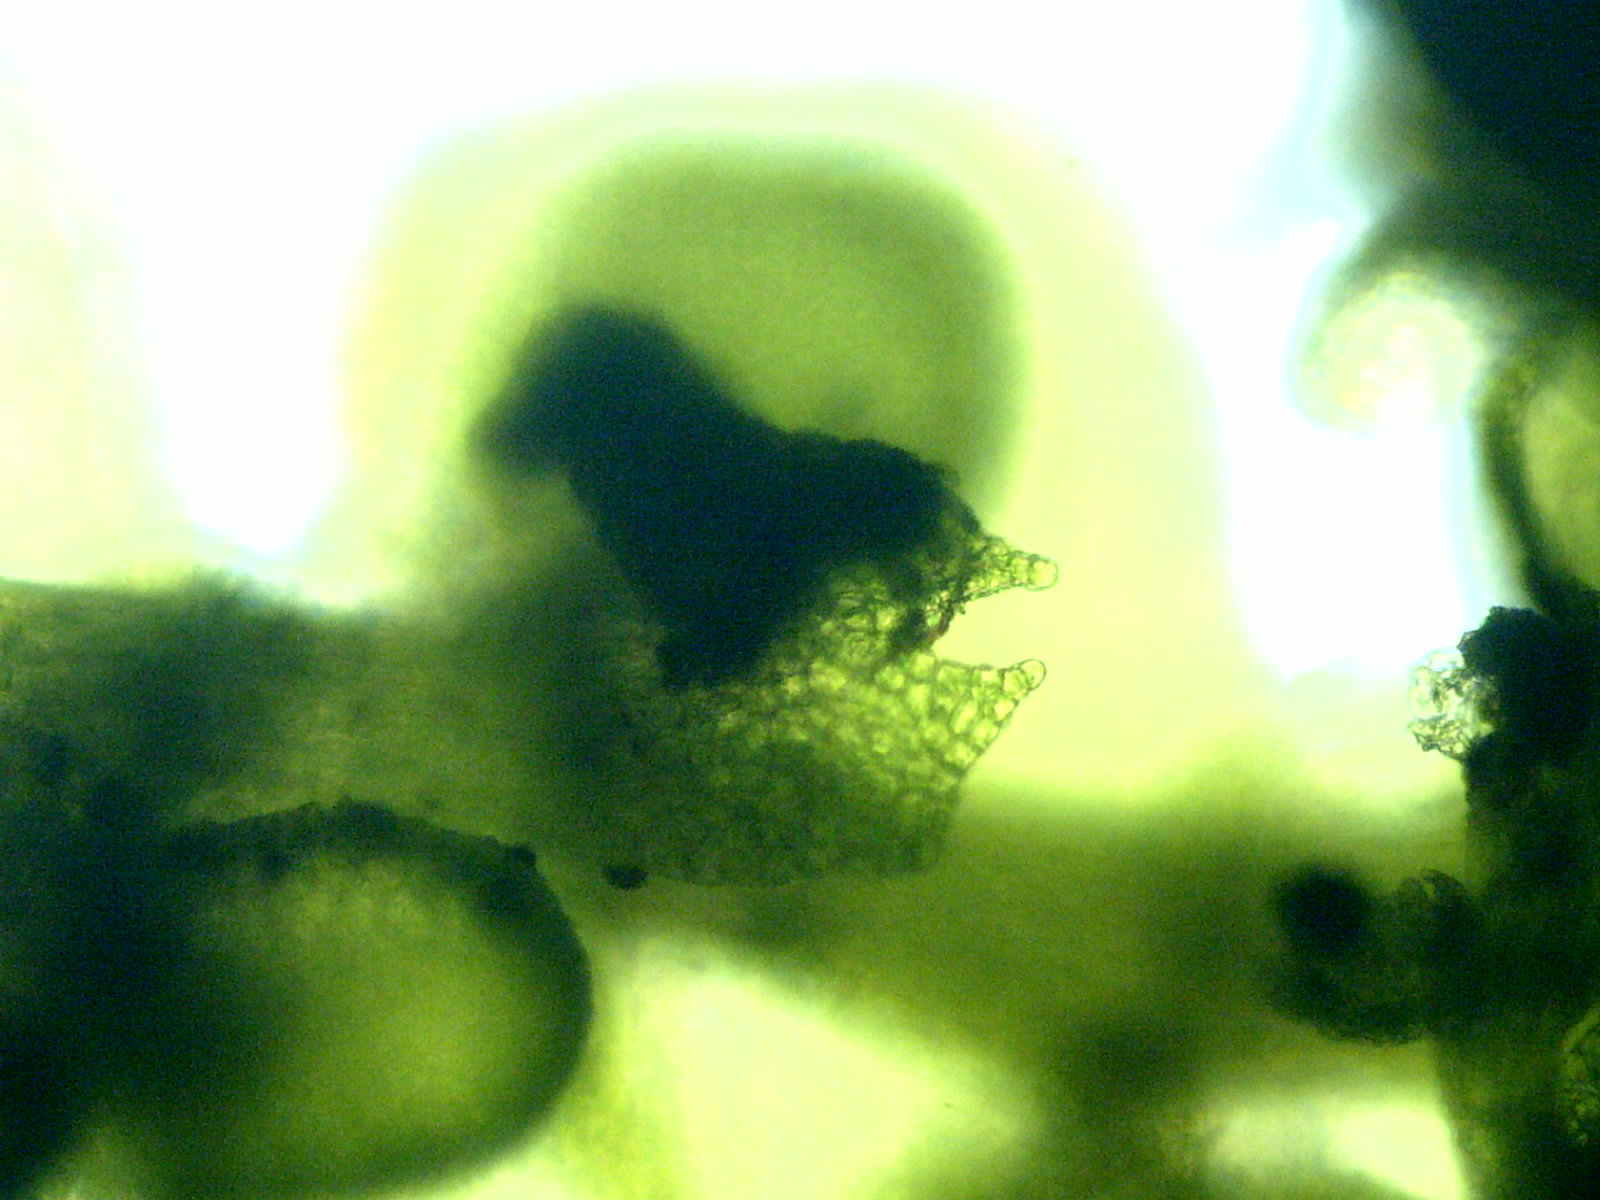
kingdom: Plantae
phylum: Marchantiophyta
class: Jungermanniopsida
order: Porellales
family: Frullaniaceae
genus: Frullania
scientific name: Frullania eboracensis
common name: New york scalewort
